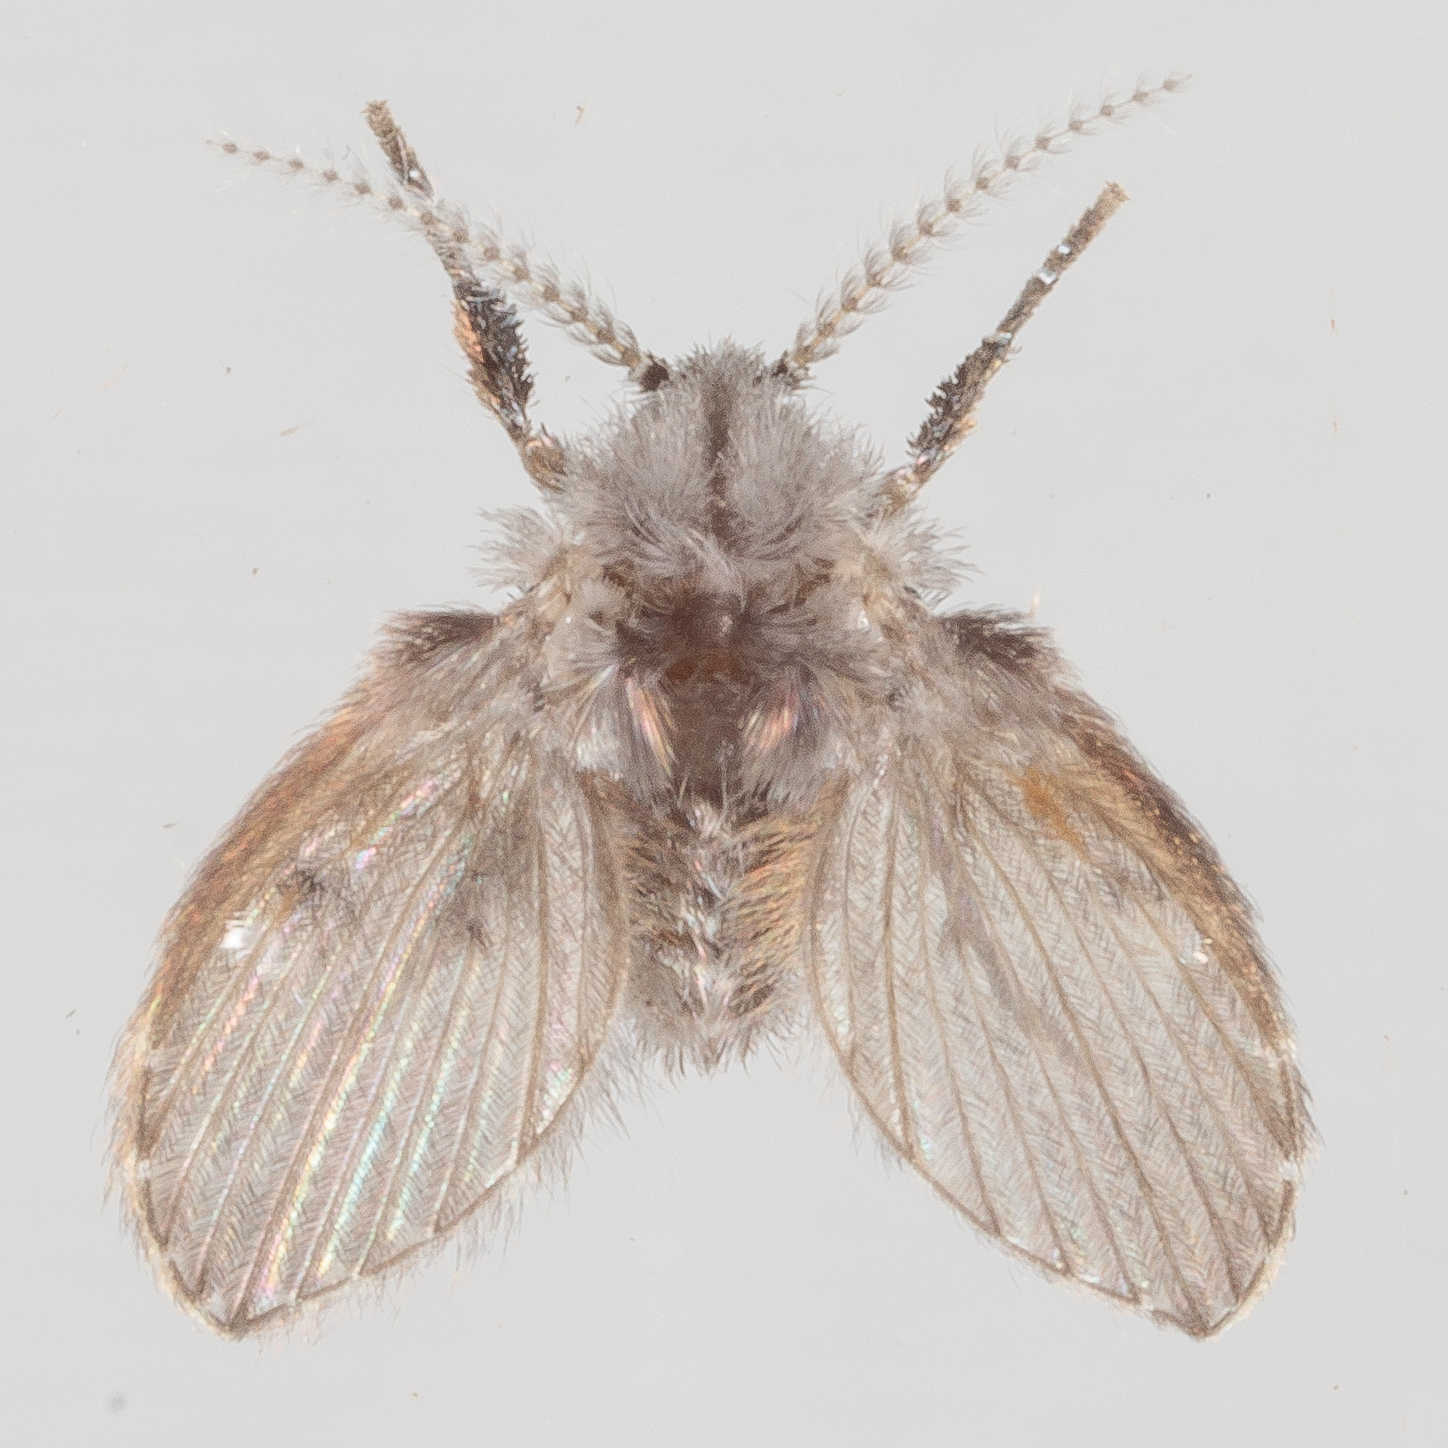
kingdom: Animalia
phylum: Arthropoda
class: Insecta
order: Diptera
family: Psychodidae
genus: Clogmia
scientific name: Clogmia albipunctatus
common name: White-spotted moth fly
